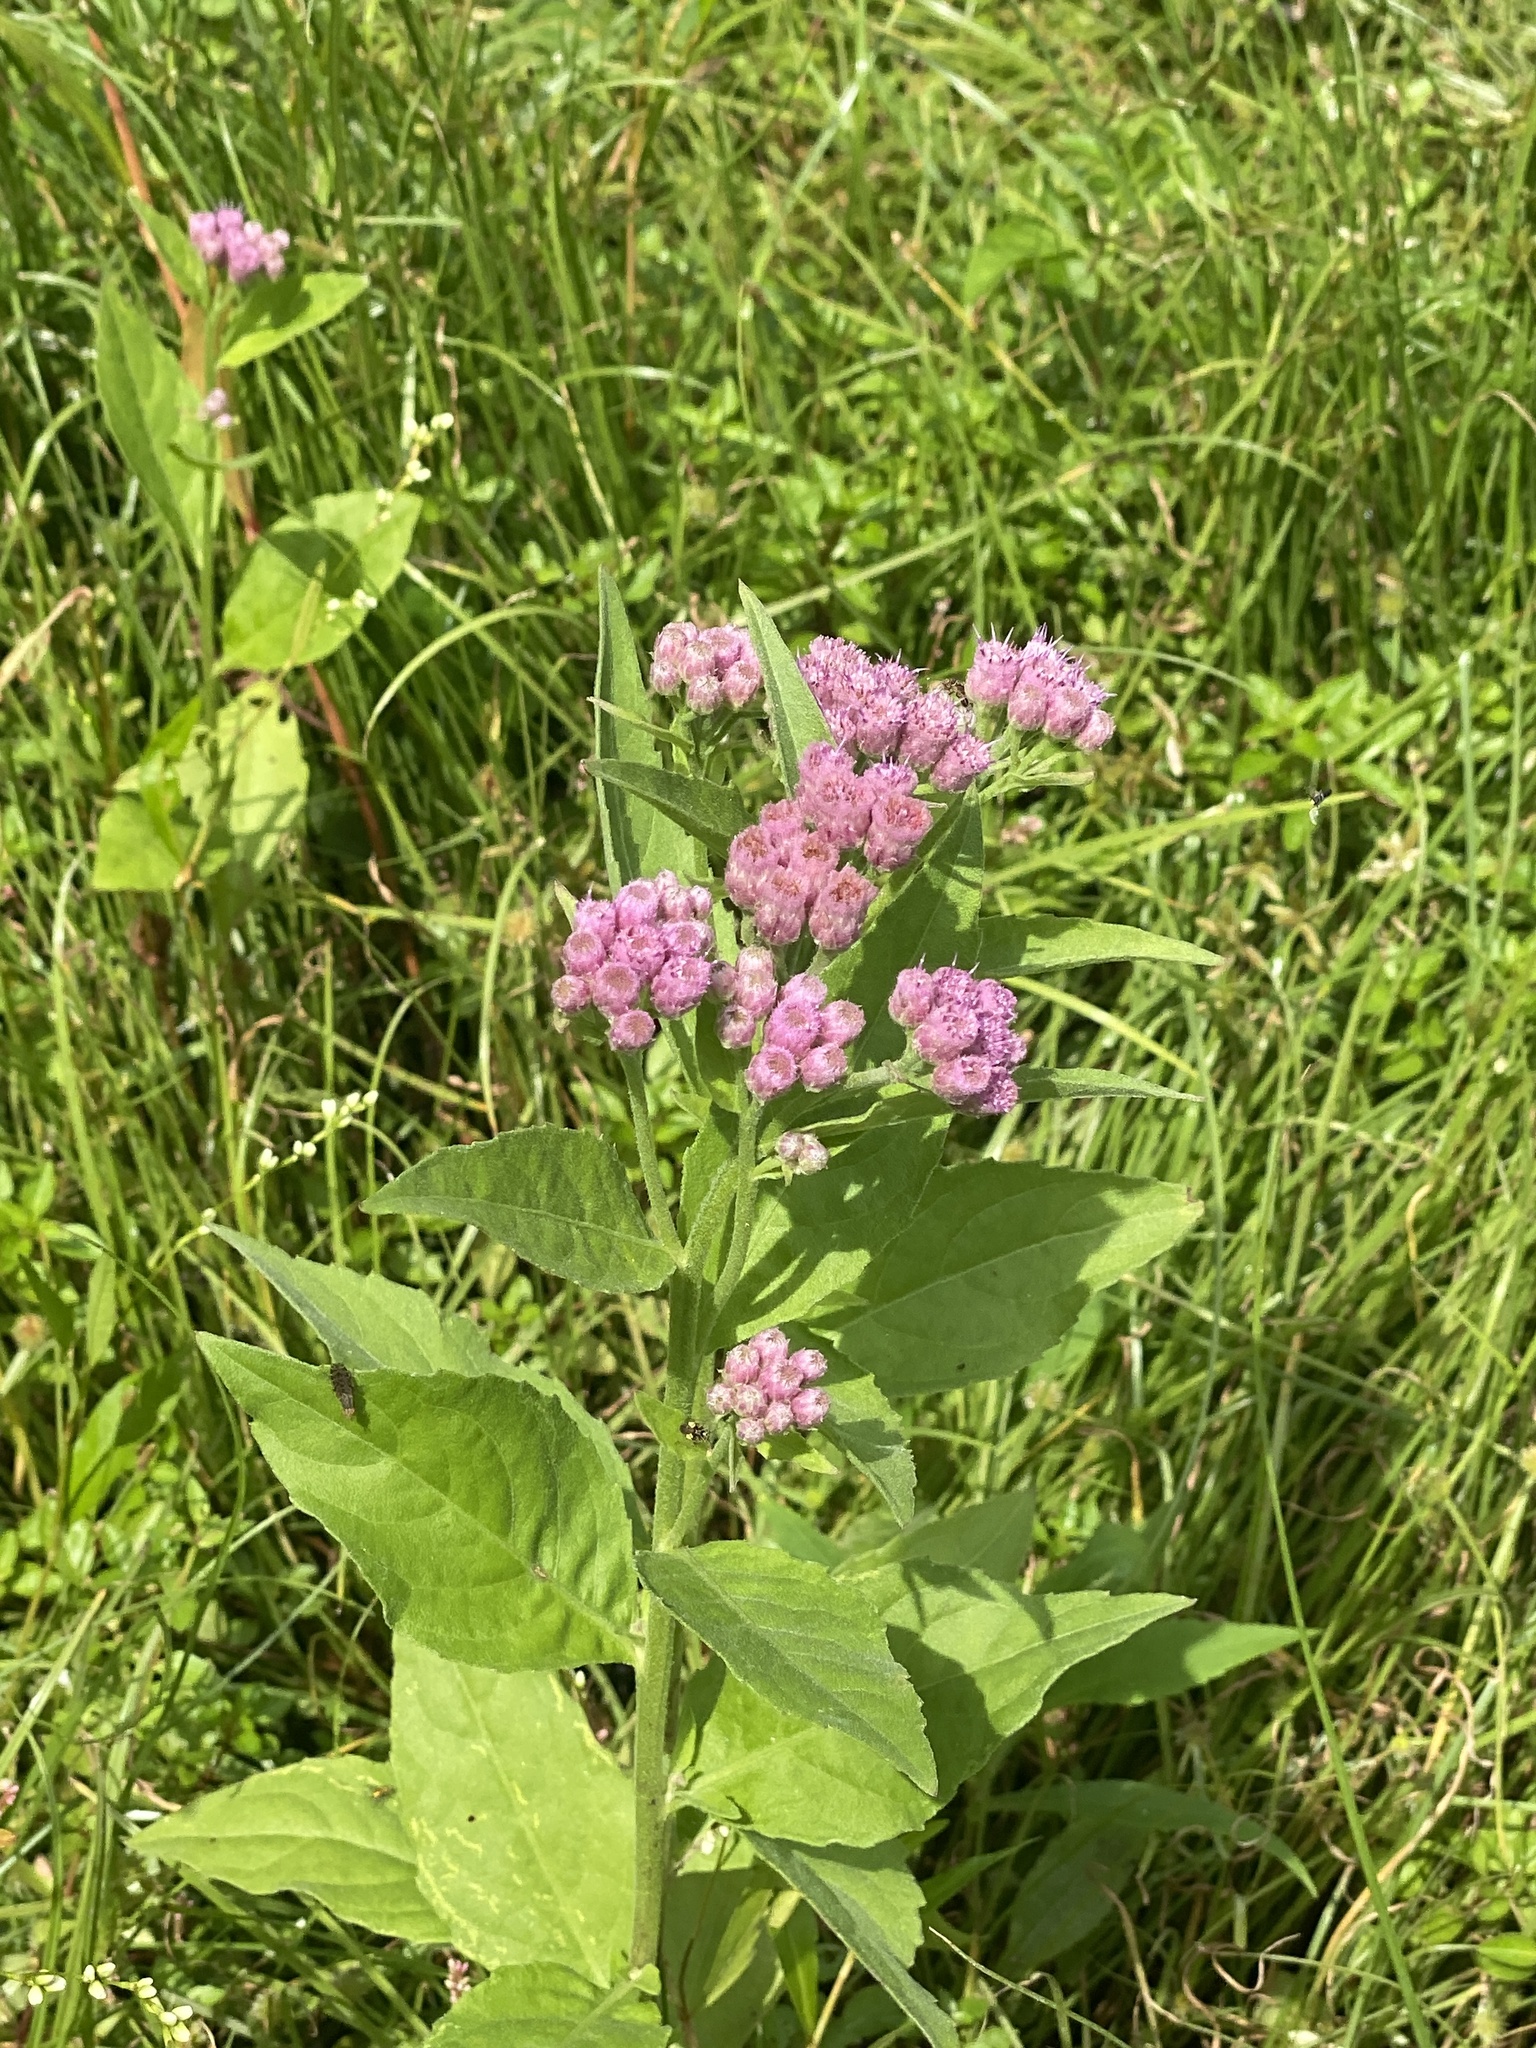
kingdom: Plantae
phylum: Tracheophyta
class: Magnoliopsida
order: Asterales
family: Asteraceae
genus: Pluchea
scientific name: Pluchea odorata
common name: Saltmarsh fleabane
